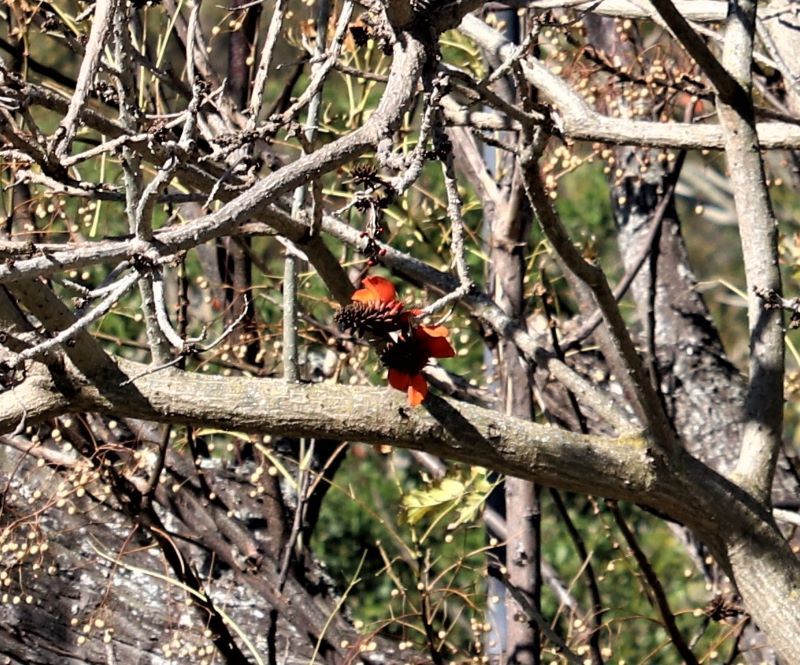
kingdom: Plantae
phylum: Tracheophyta
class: Magnoliopsida
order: Fabales
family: Fabaceae
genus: Erythrina
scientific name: Erythrina caffra
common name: Coast coral tree
